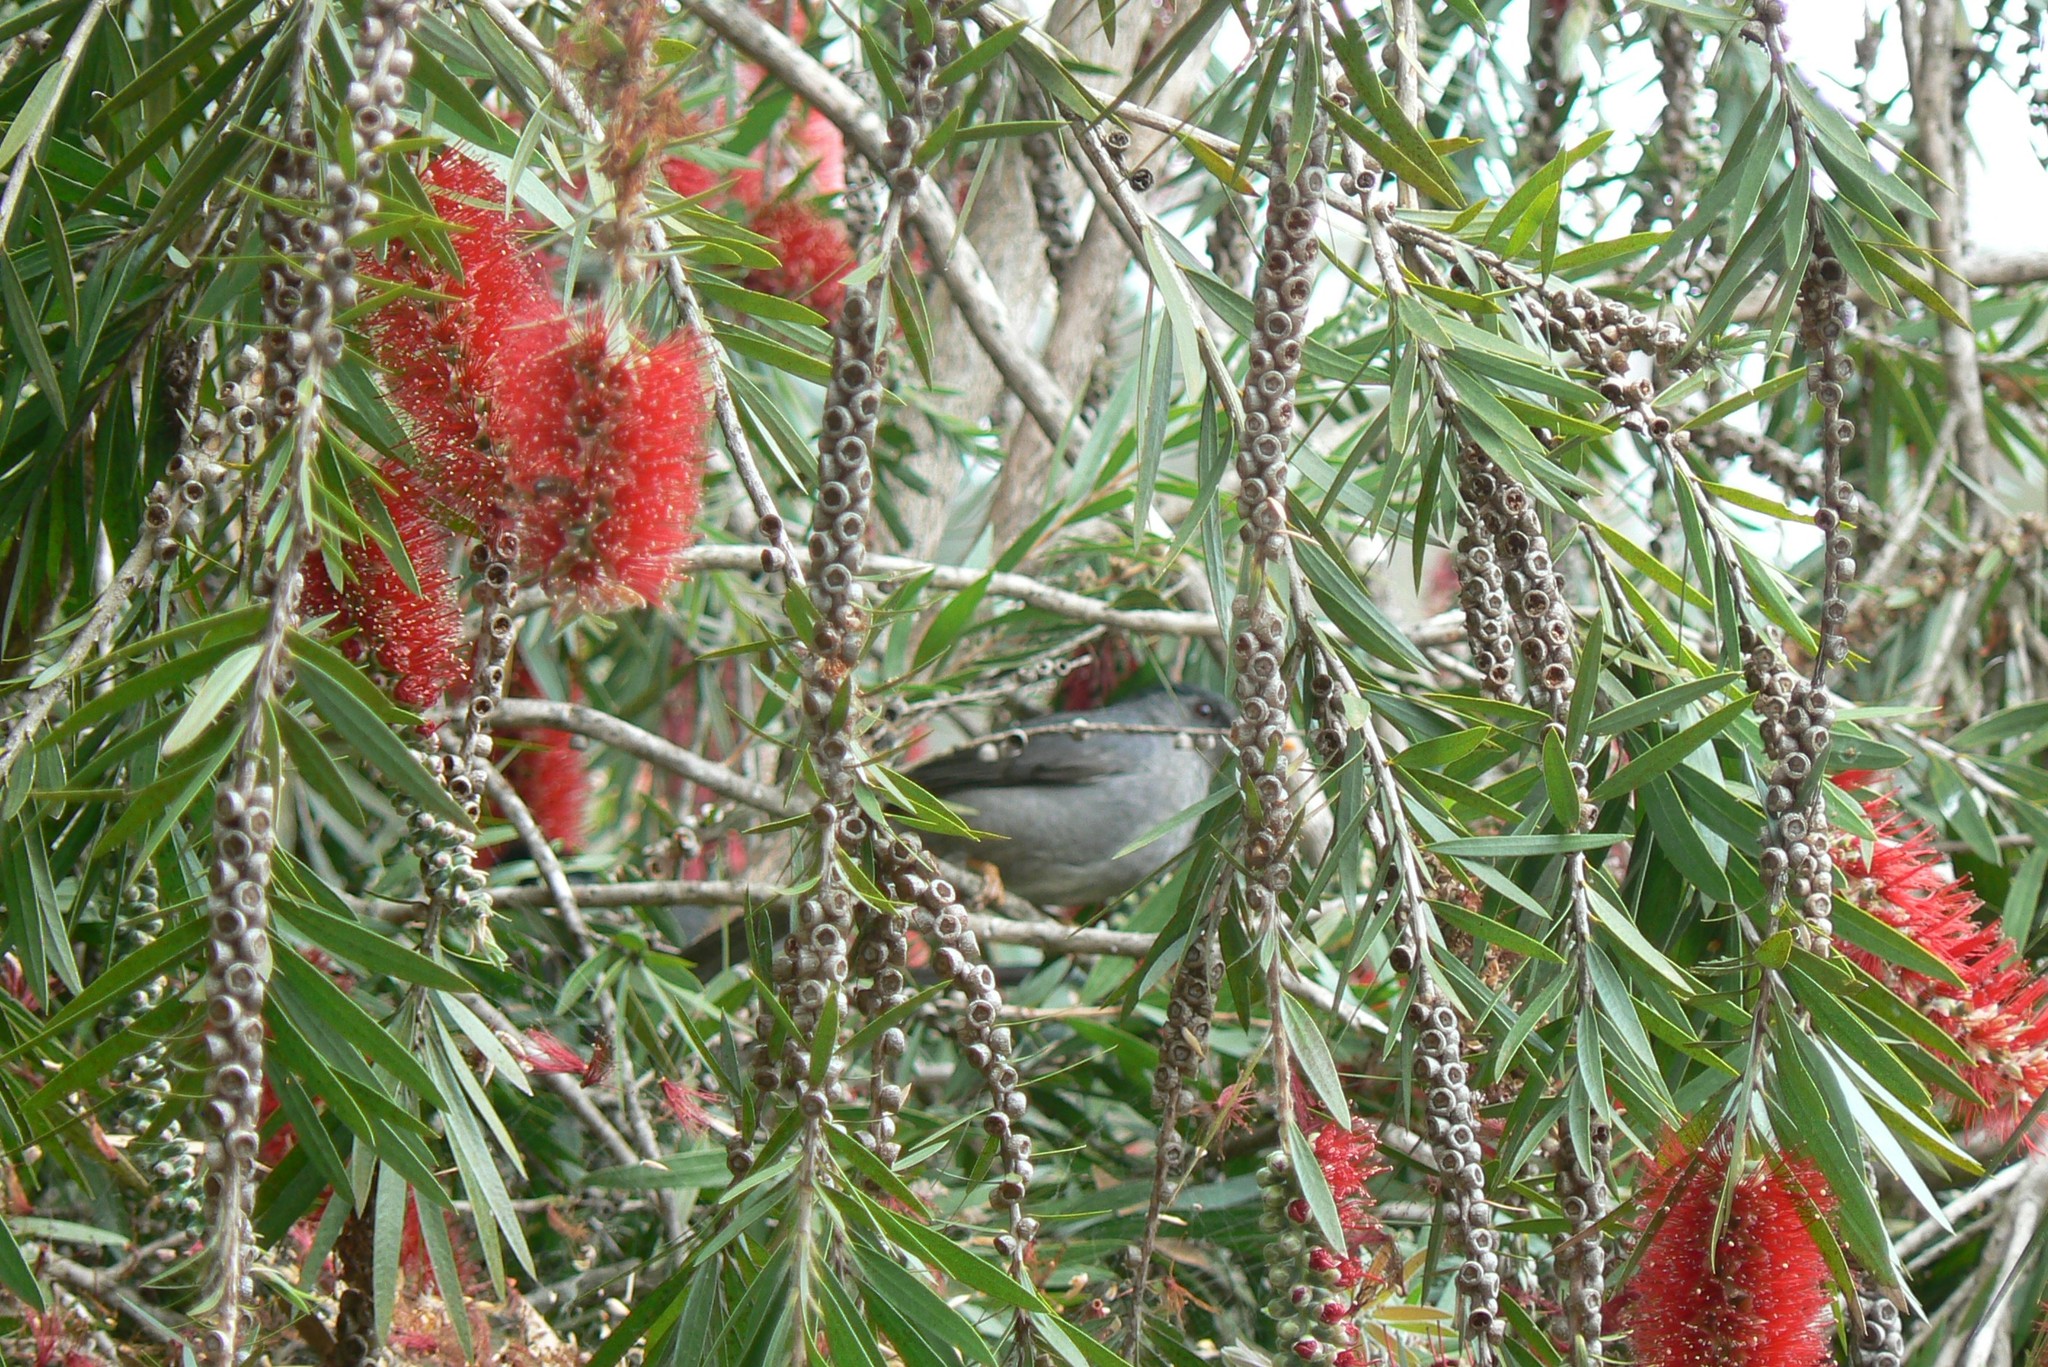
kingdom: Plantae
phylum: Tracheophyta
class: Magnoliopsida
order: Myrtales
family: Myrtaceae
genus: Callistemon
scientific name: Callistemon viminalis
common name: Drooping bottlebrush
